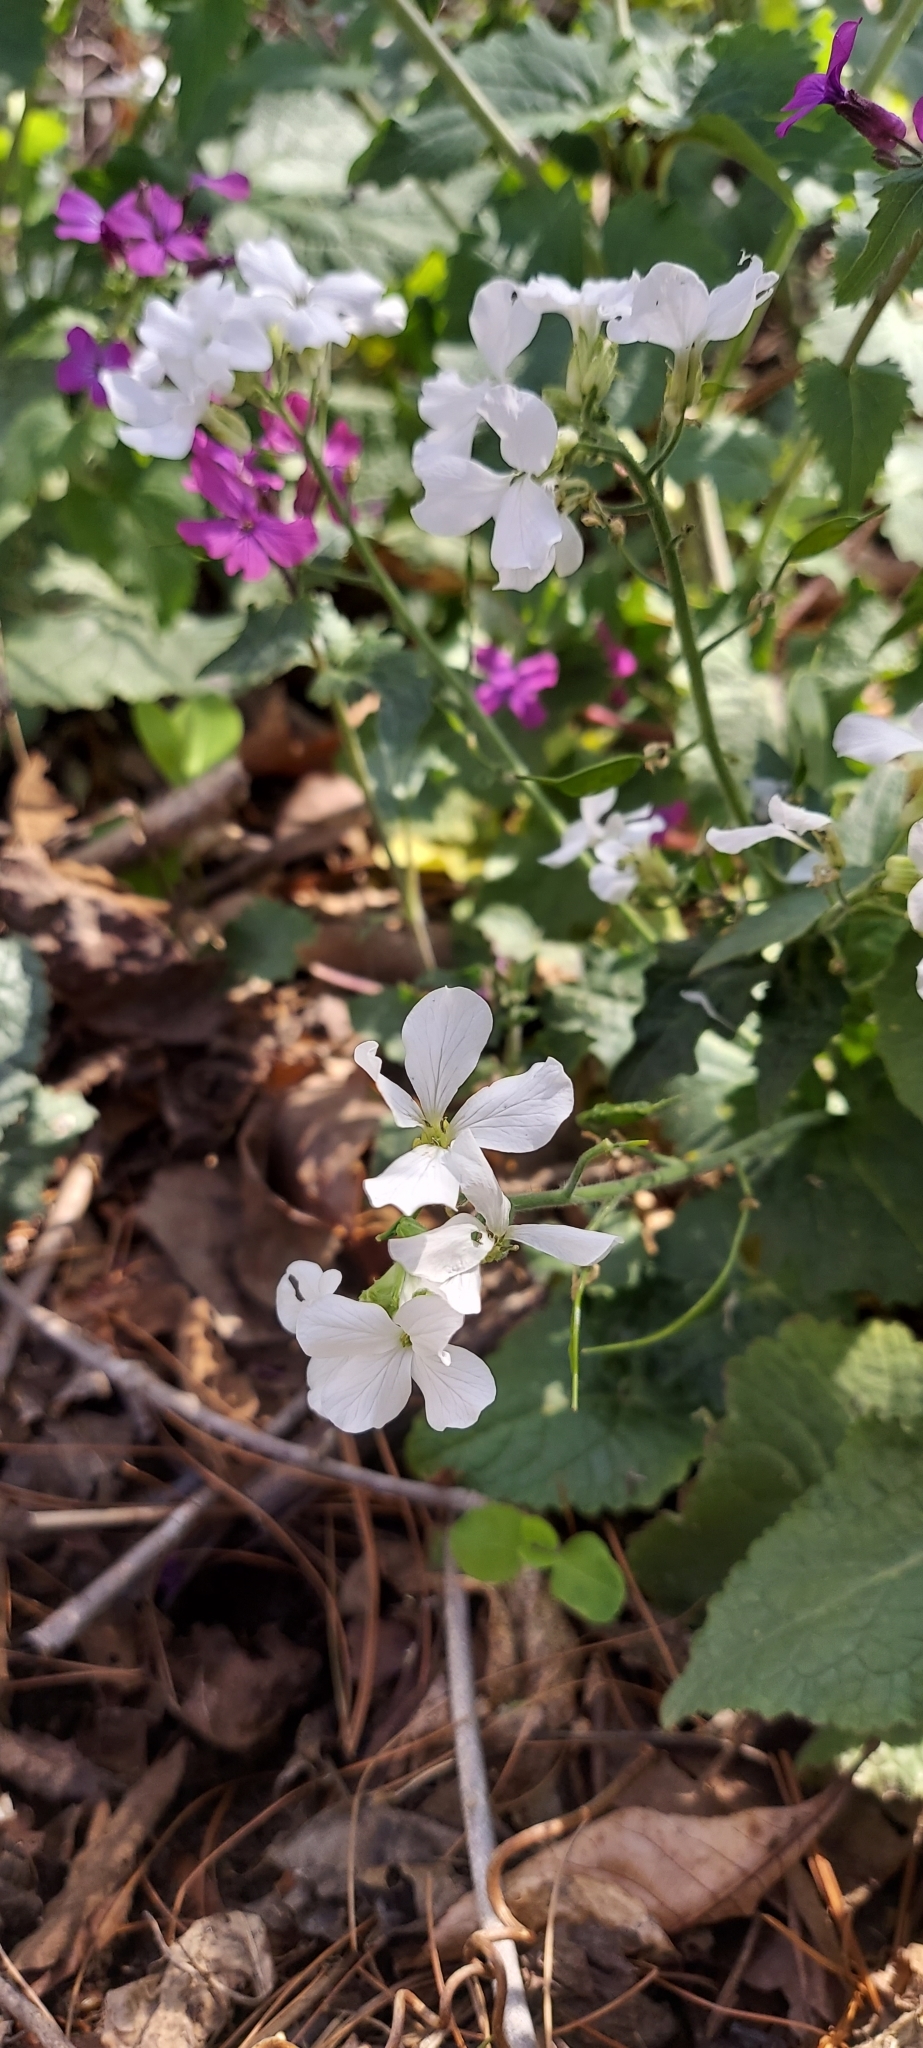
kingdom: Plantae
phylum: Tracheophyta
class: Magnoliopsida
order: Brassicales
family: Brassicaceae
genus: Lunaria
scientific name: Lunaria annua
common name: Honesty
